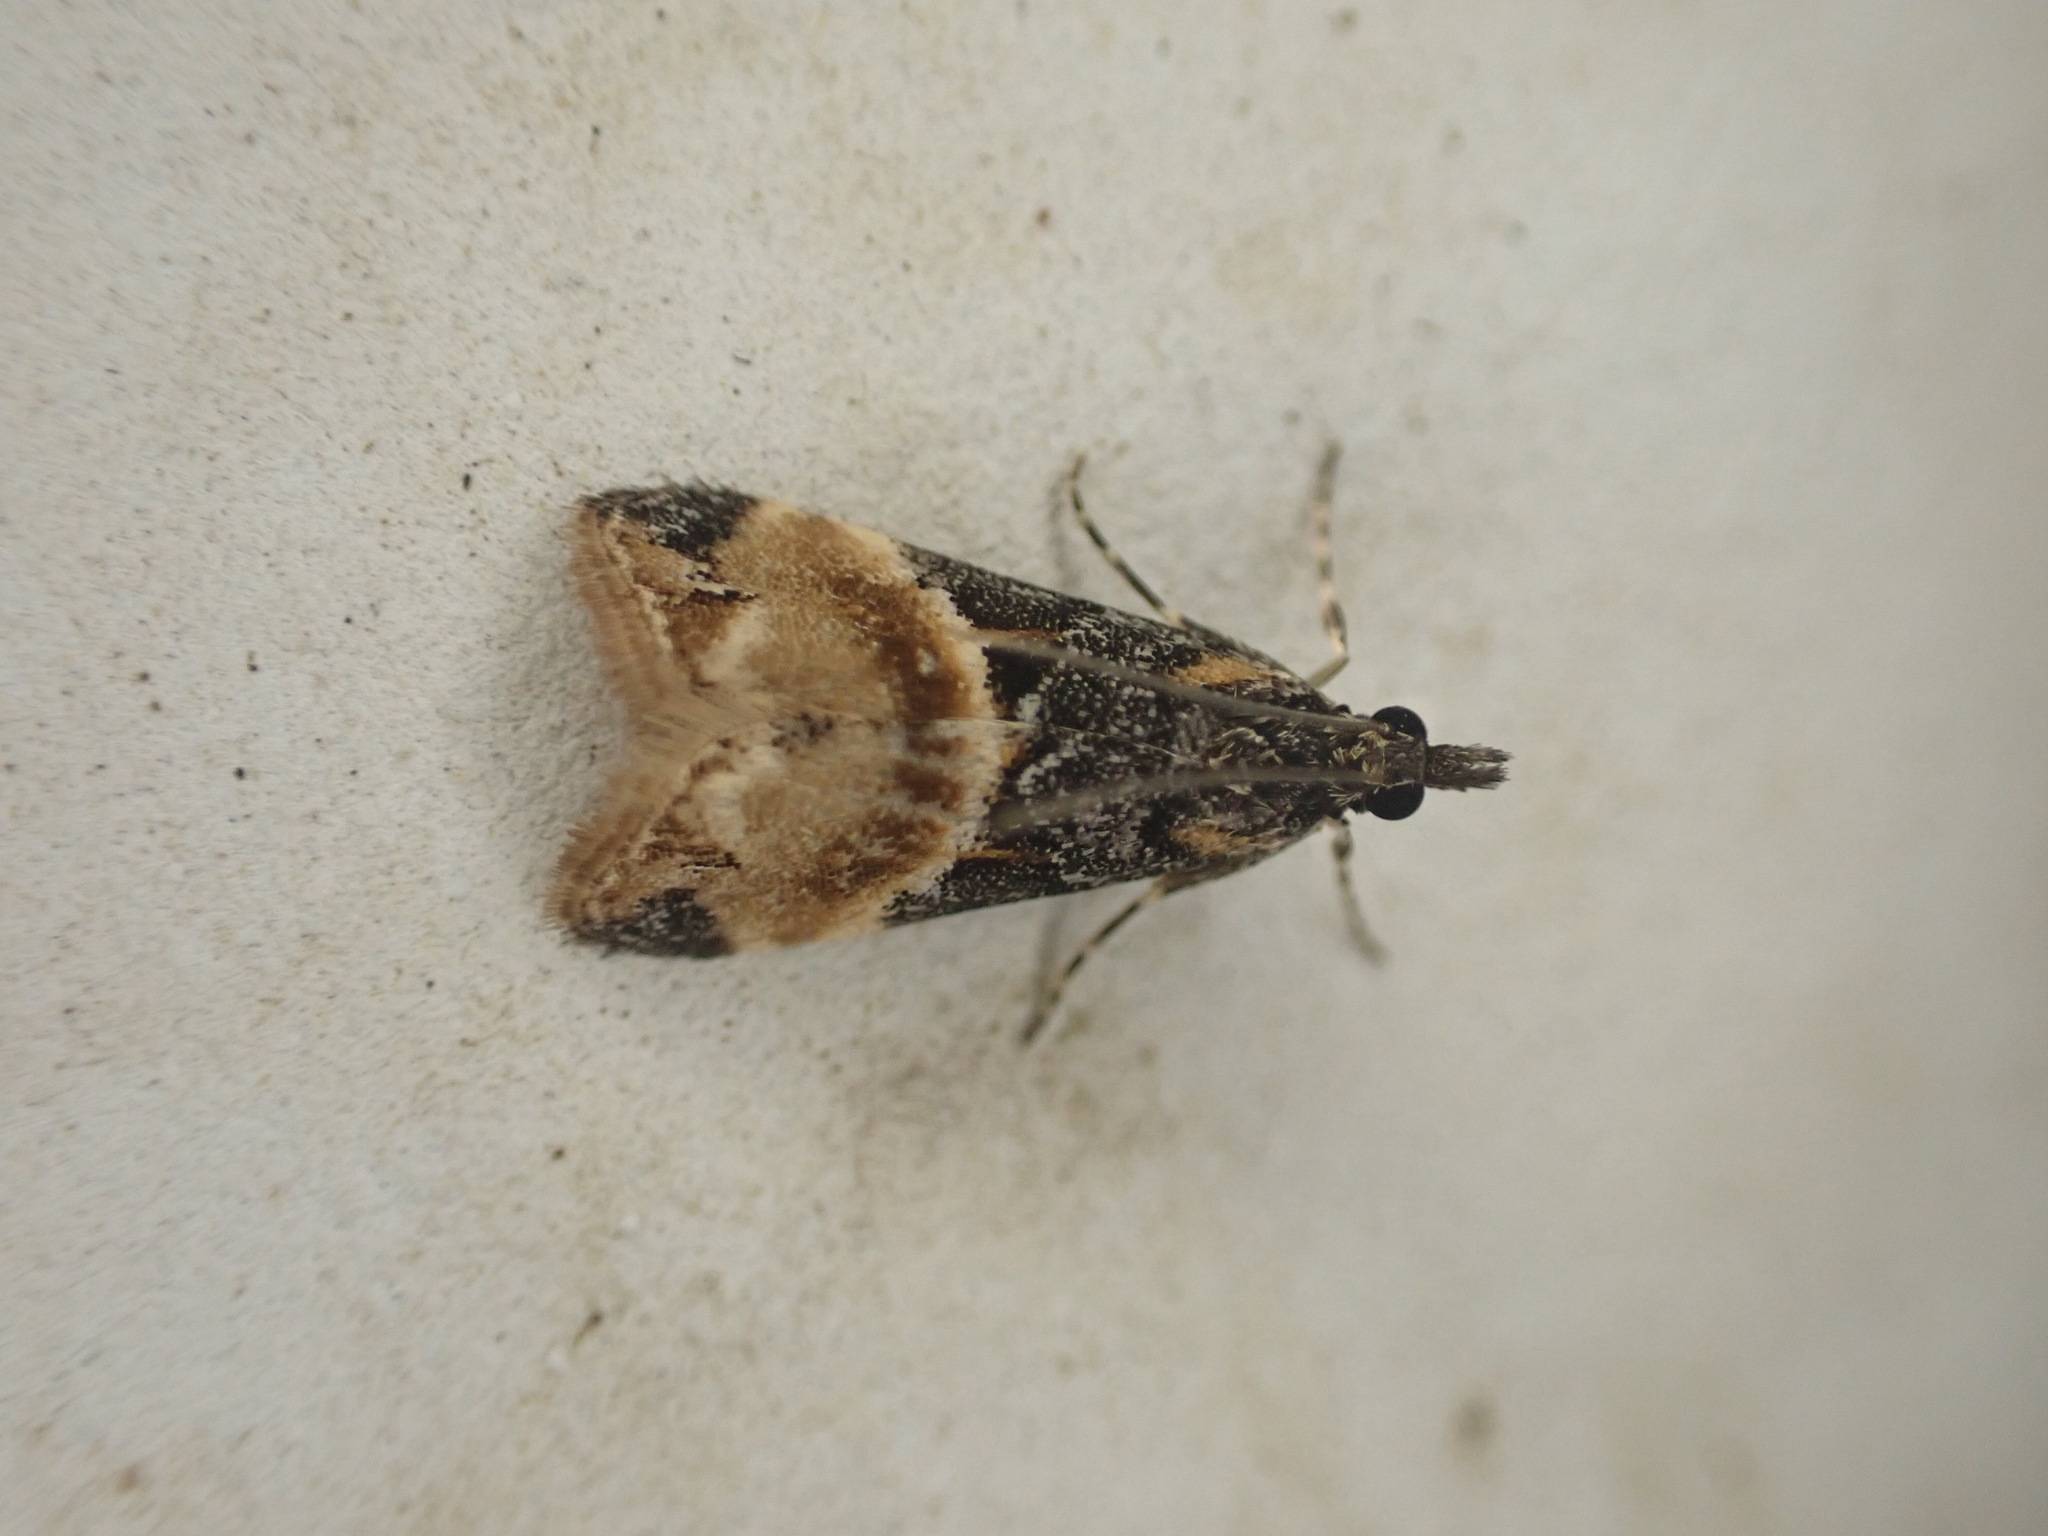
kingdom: Animalia
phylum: Arthropoda
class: Insecta
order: Lepidoptera
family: Crambidae
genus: Eudonia
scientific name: Eudonia chlamydota
